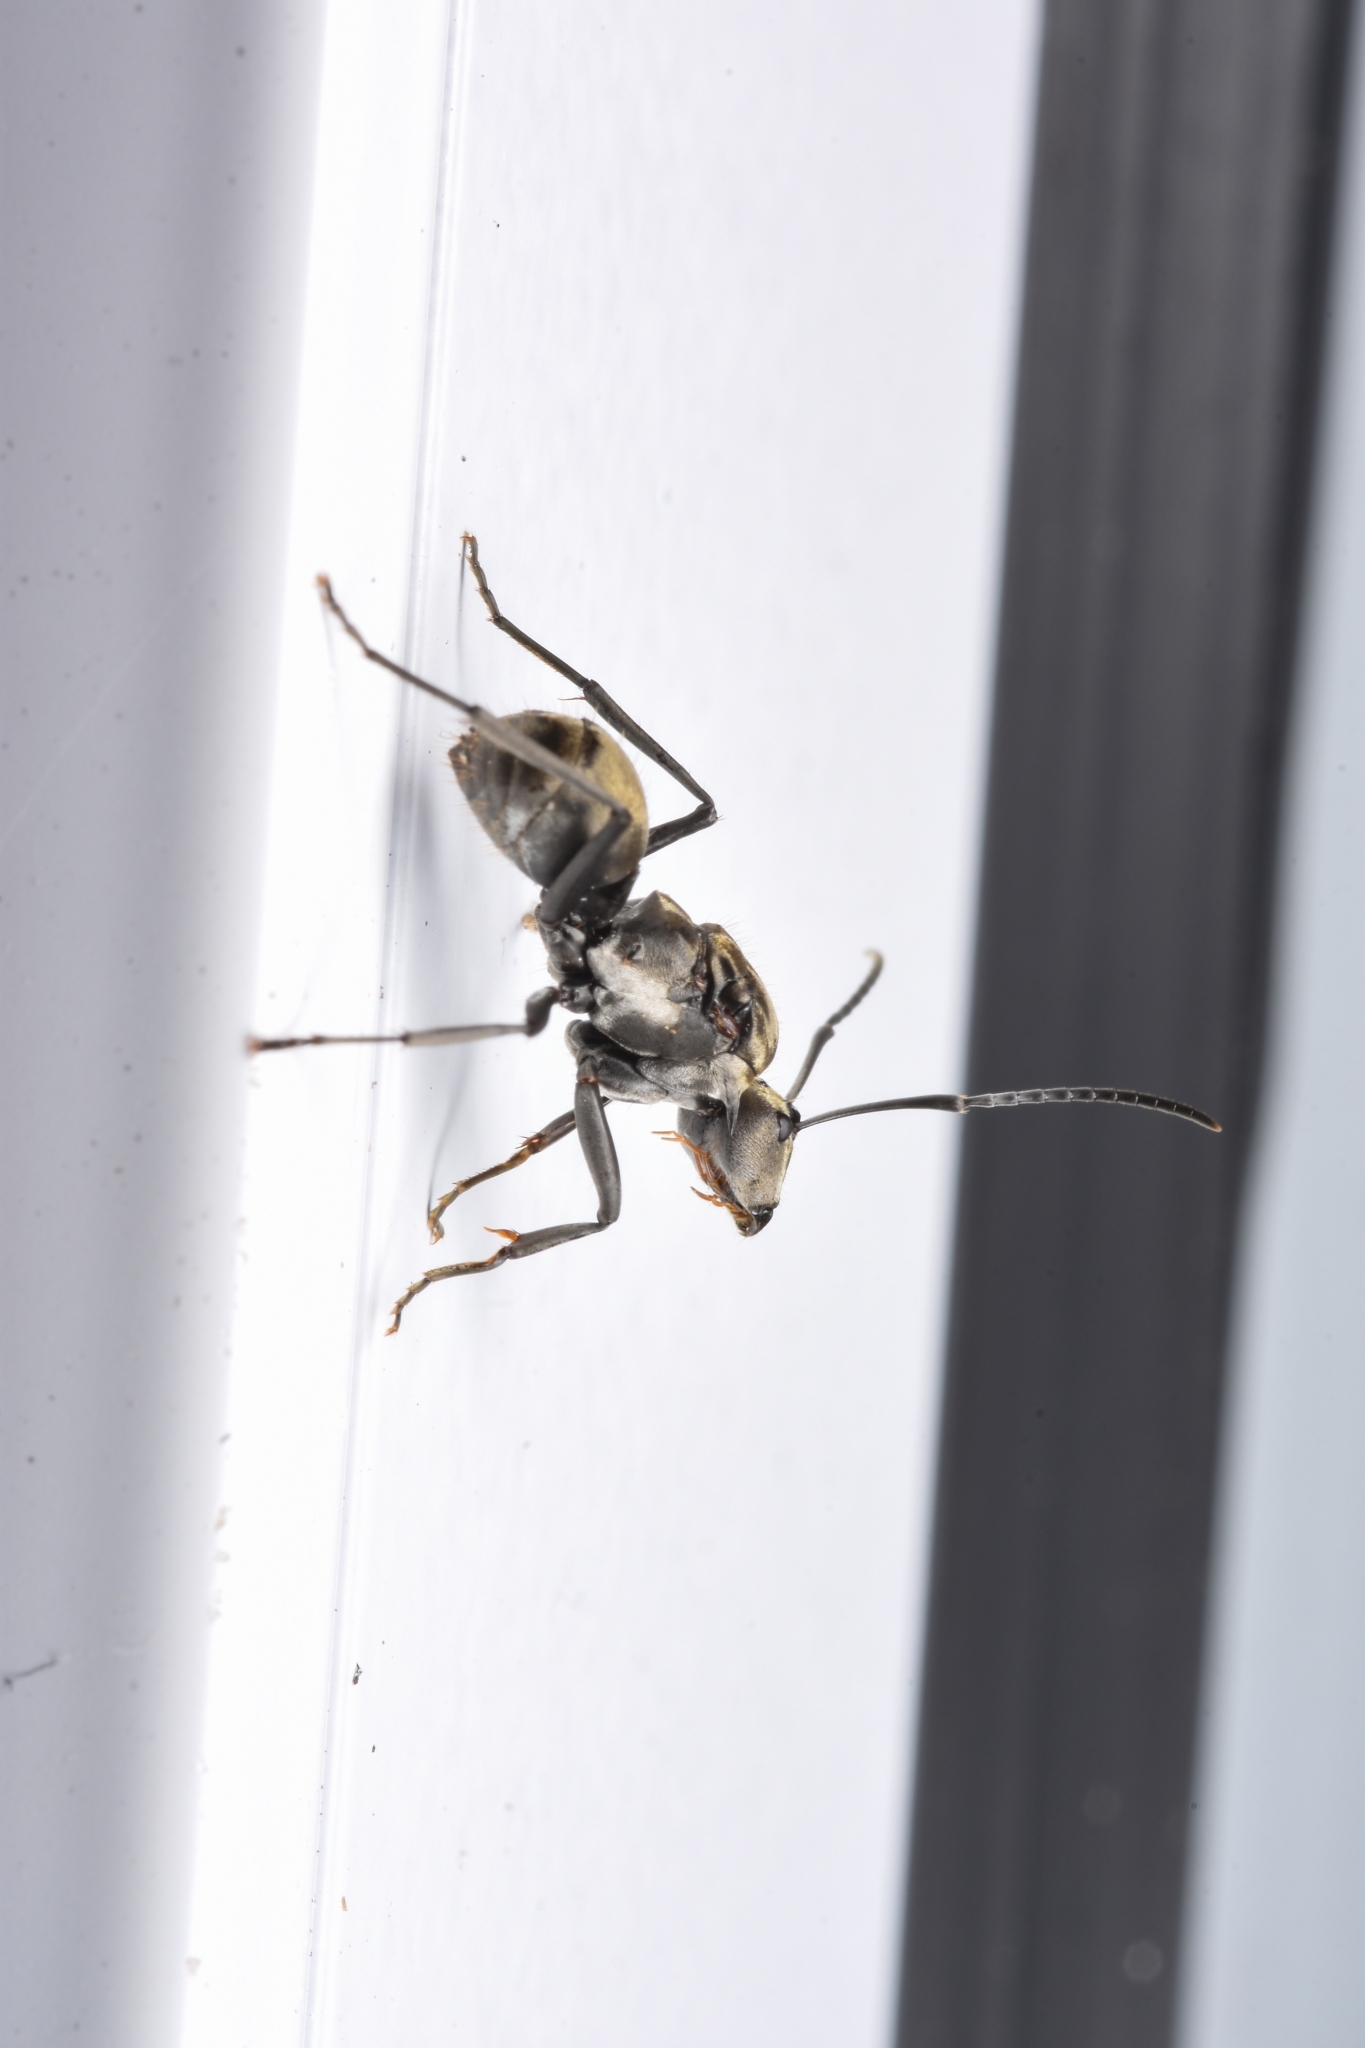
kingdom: Animalia
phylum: Arthropoda
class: Insecta
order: Hymenoptera
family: Formicidae
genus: Polyrhachis
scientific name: Polyrhachis foreli
